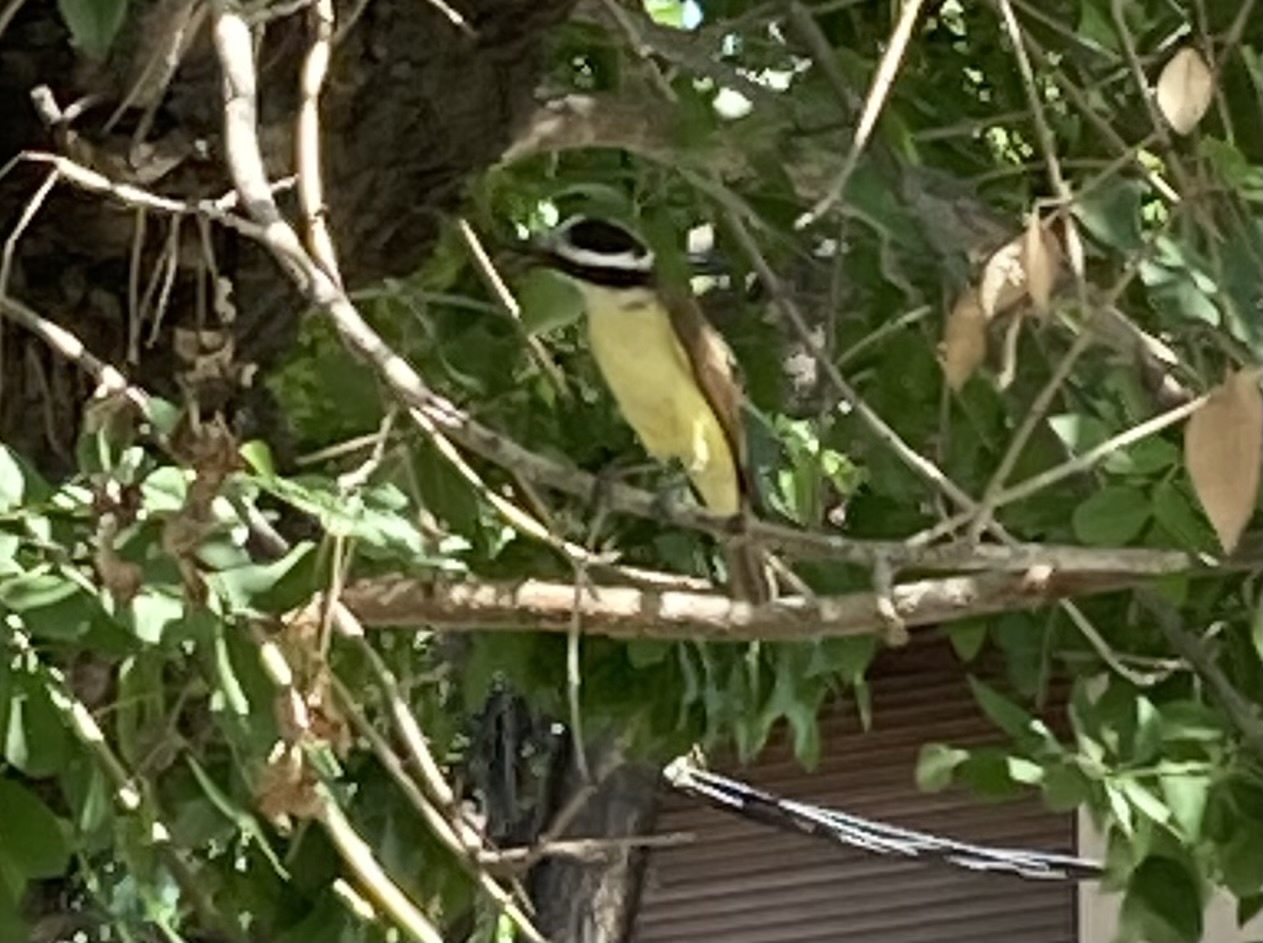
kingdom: Animalia
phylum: Chordata
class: Aves
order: Passeriformes
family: Tyrannidae
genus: Pitangus
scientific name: Pitangus sulphuratus
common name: Great kiskadee
